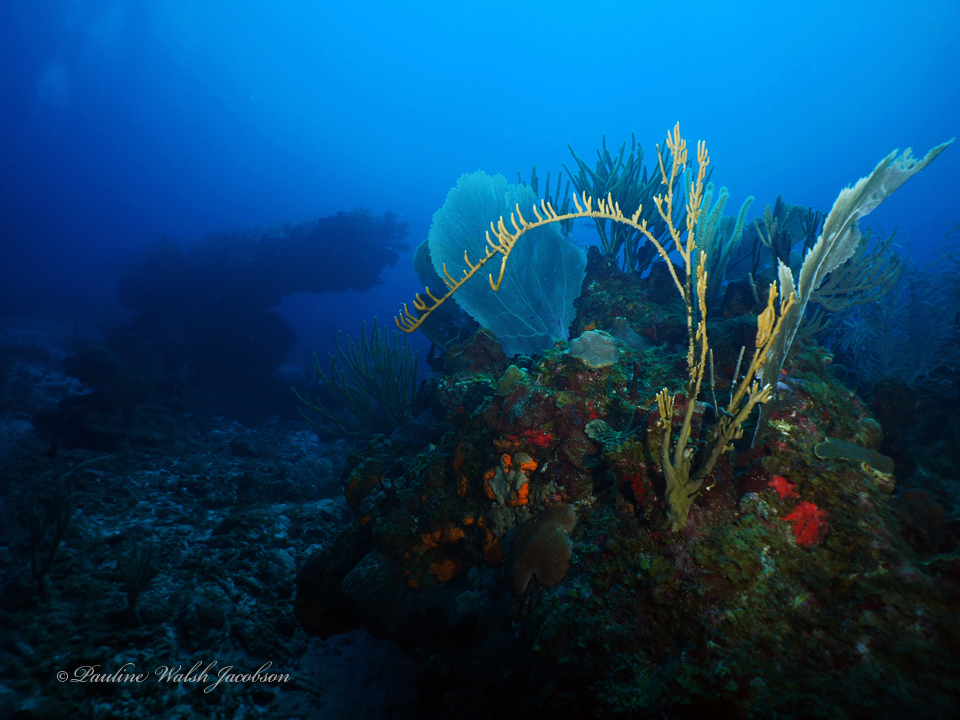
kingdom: Animalia
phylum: Cnidaria
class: Hydrozoa
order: Anthoathecata
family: Milleporidae
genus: Millepora
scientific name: Millepora alcicornis
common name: Branching fire coral
